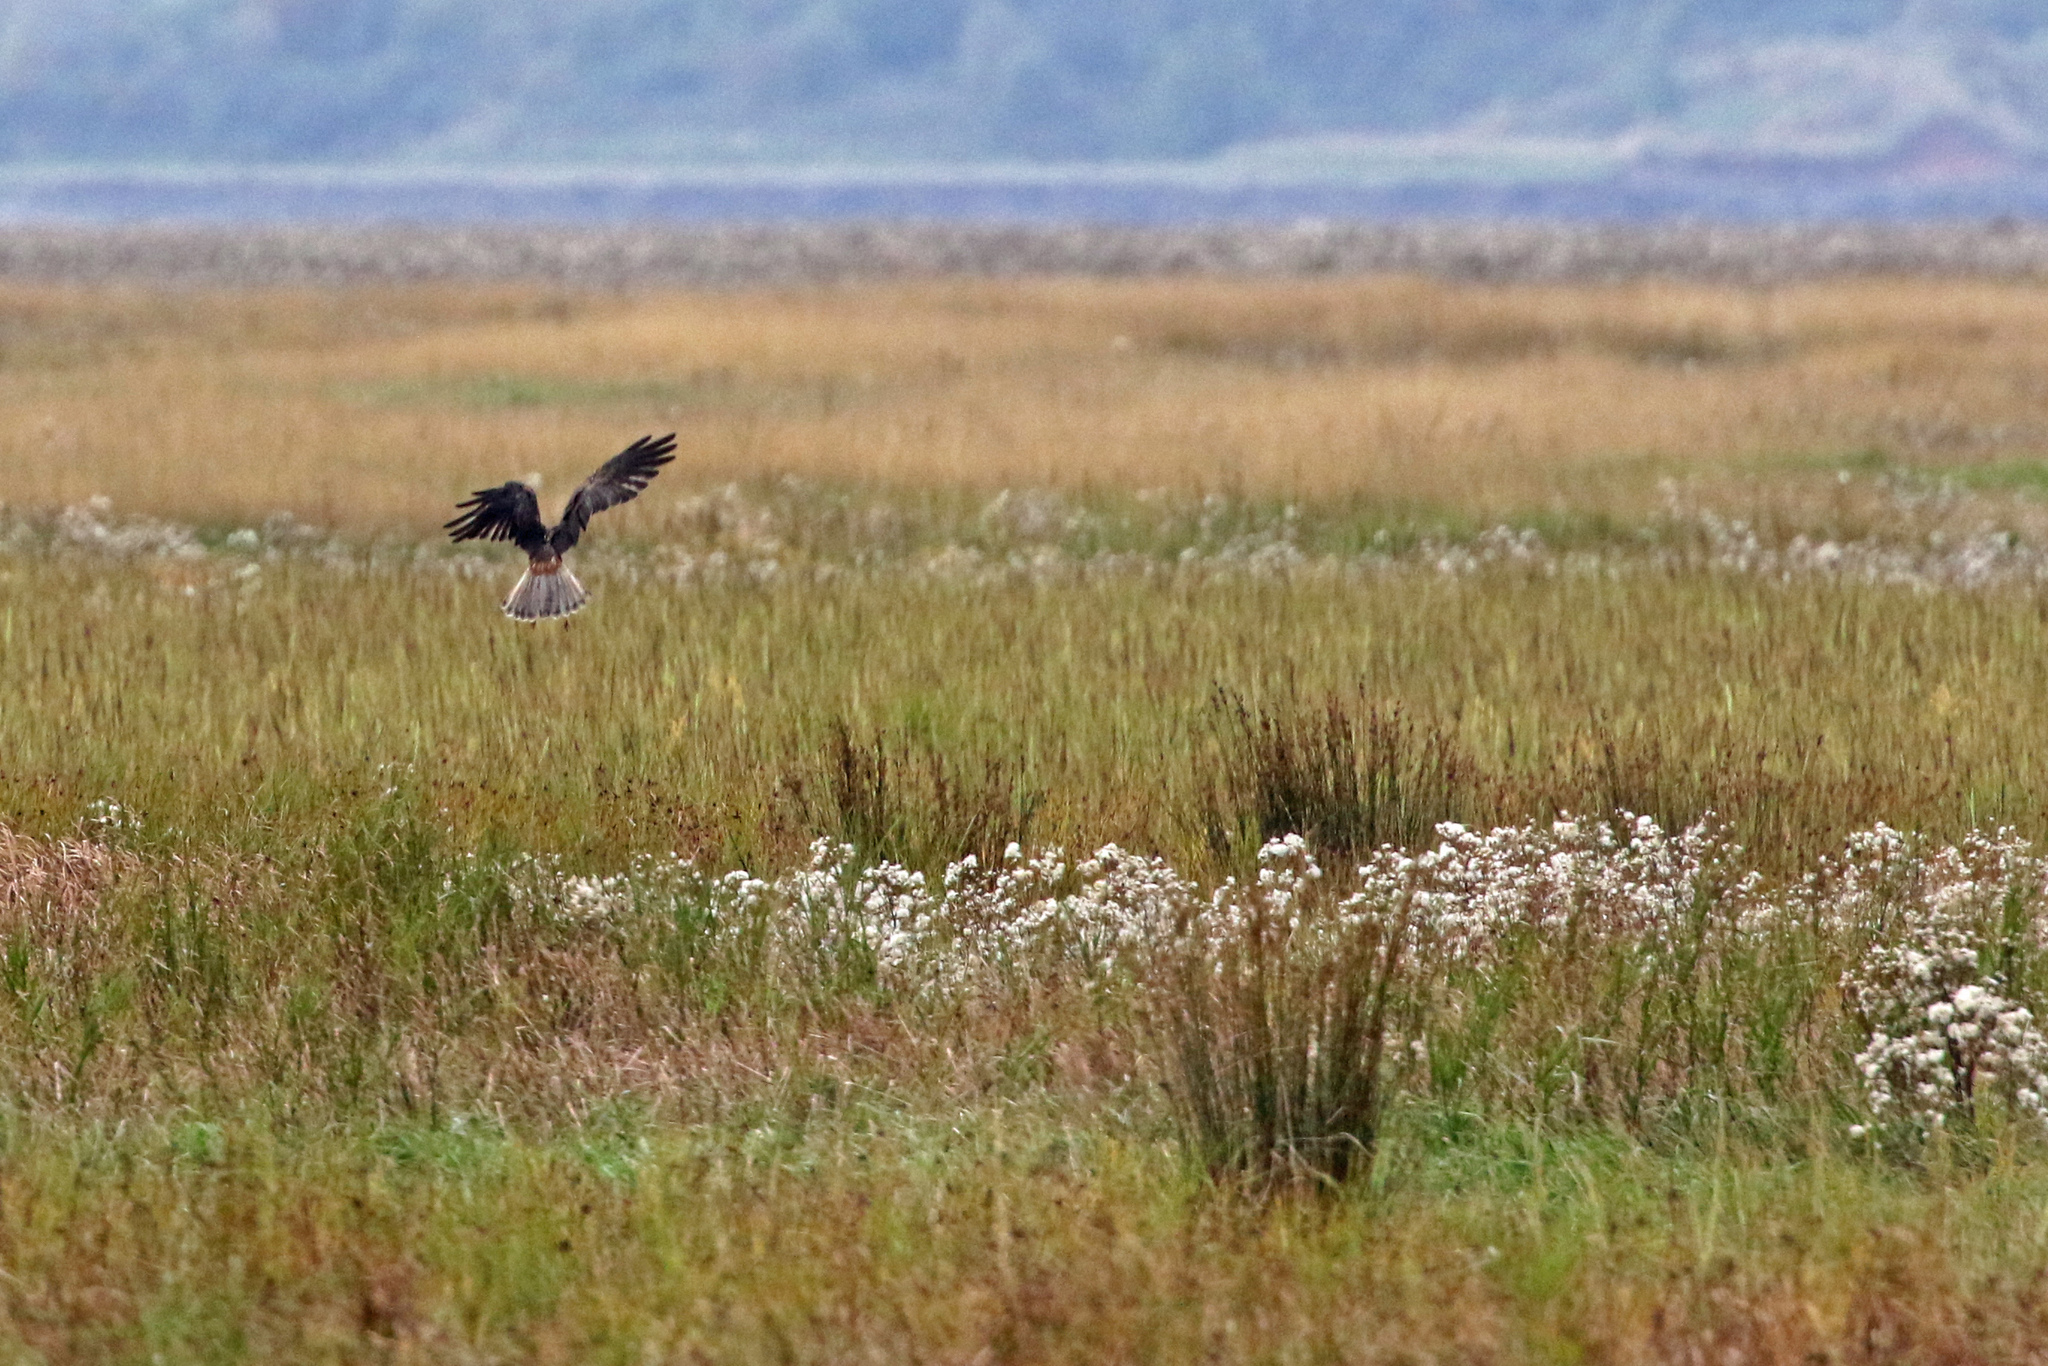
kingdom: Animalia
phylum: Chordata
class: Aves
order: Accipitriformes
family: Accipitridae
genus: Circus
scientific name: Circus aeruginosus
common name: Western marsh harrier
